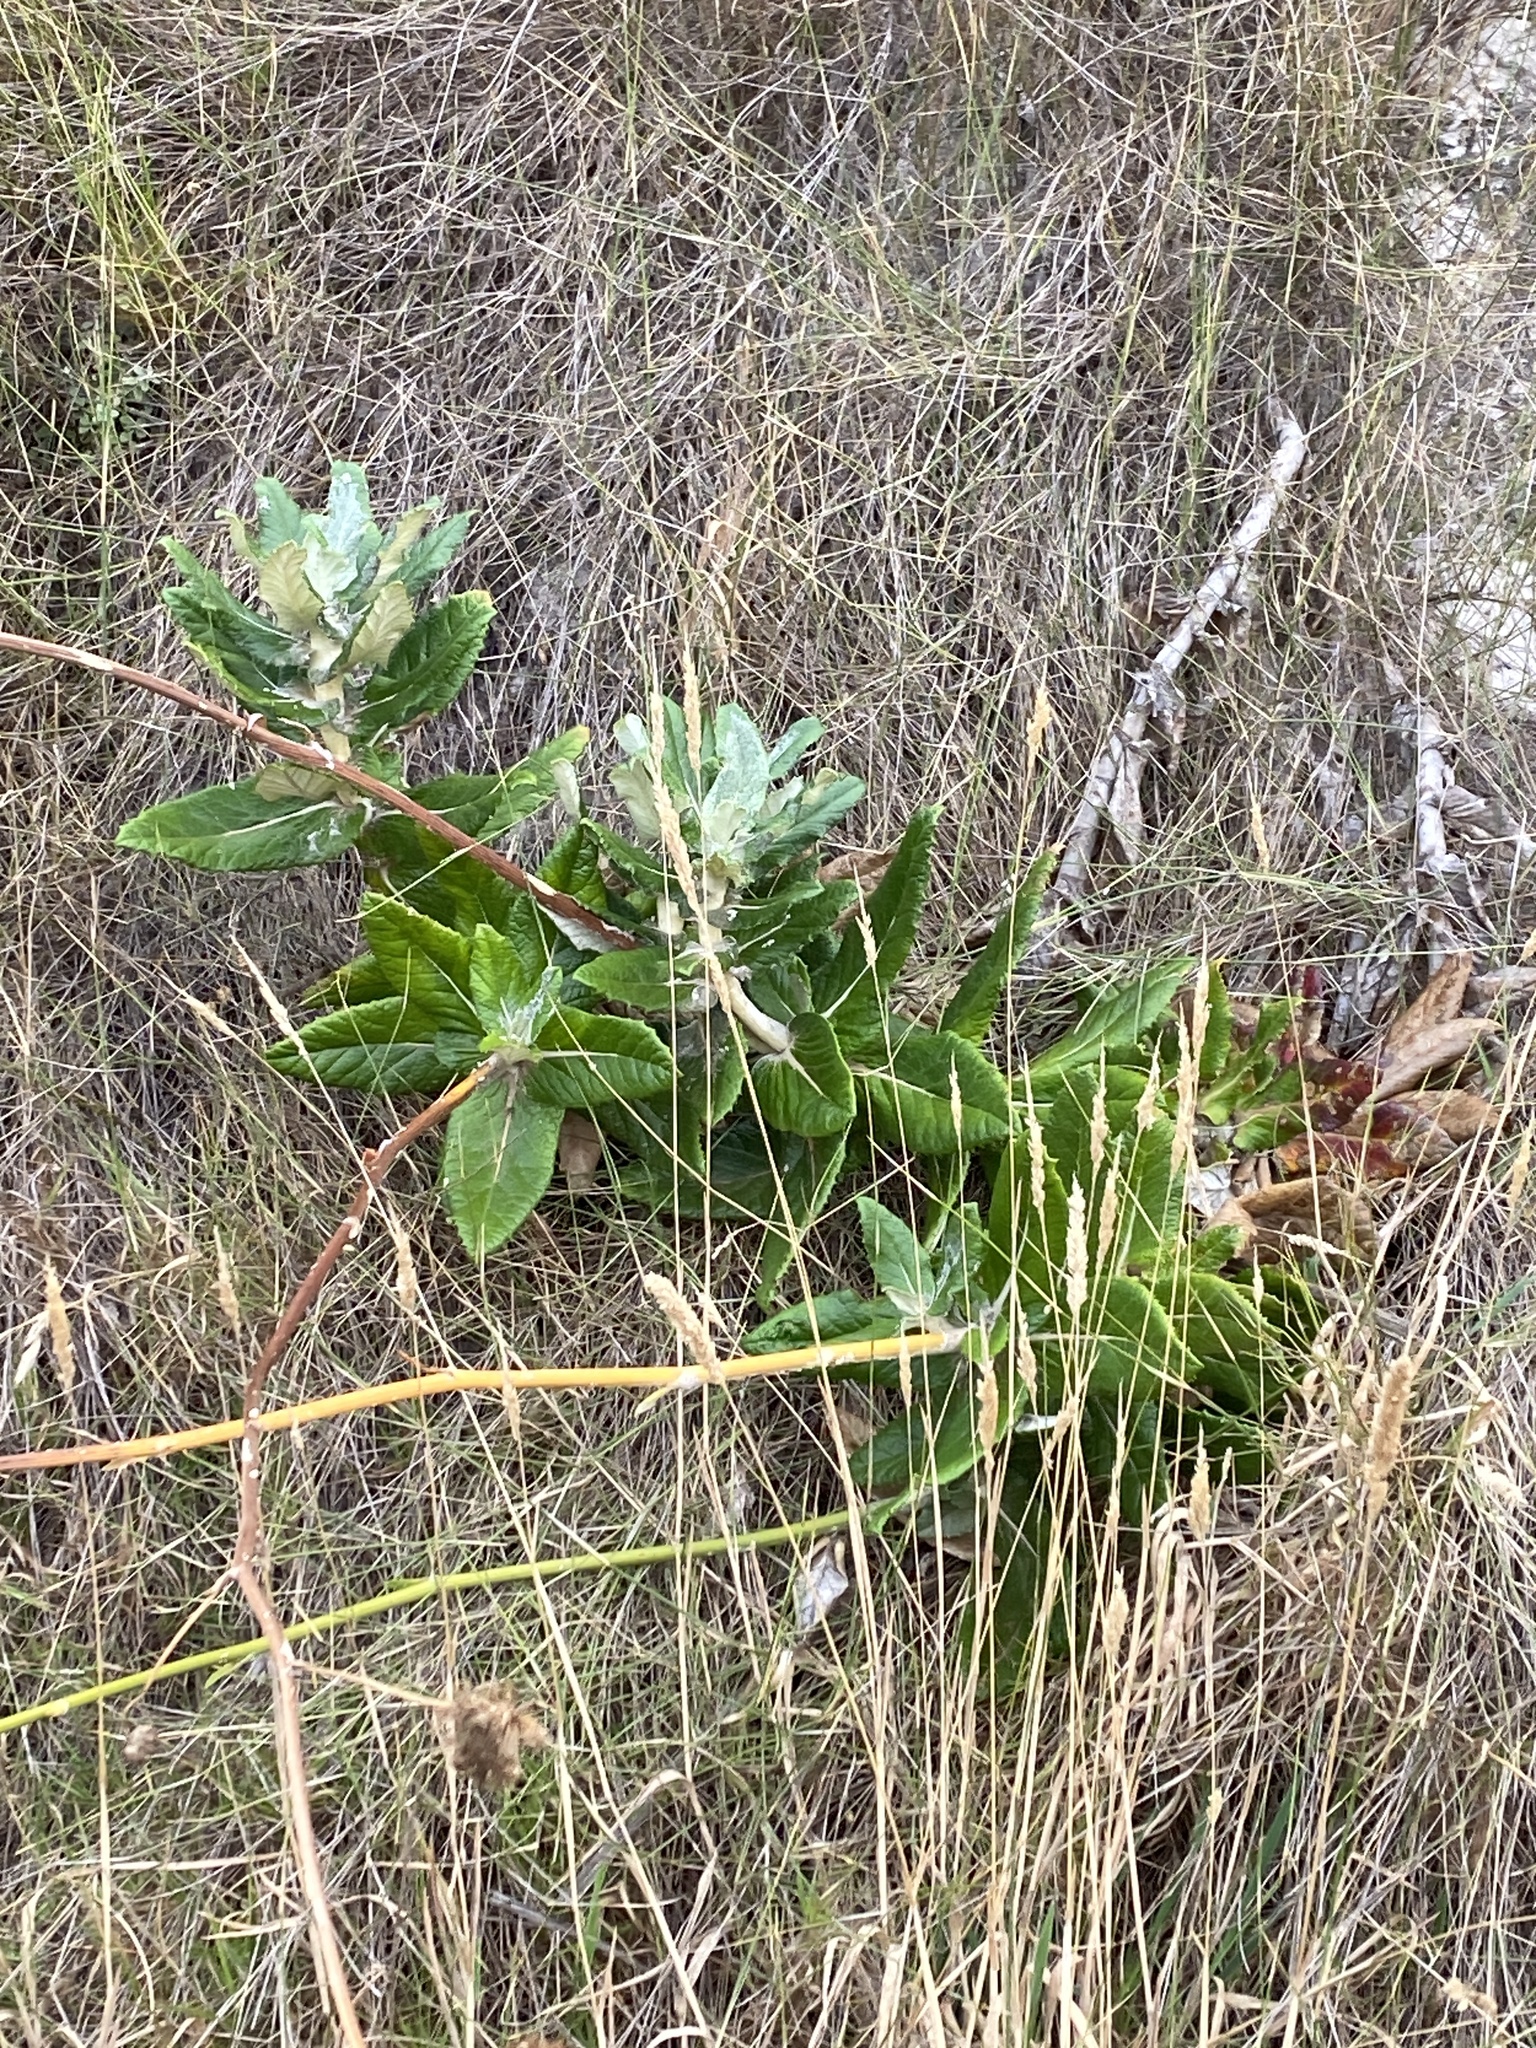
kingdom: Plantae
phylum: Tracheophyta
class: Magnoliopsida
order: Apiales
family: Apiaceae
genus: Hermas
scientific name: Hermas villosa
